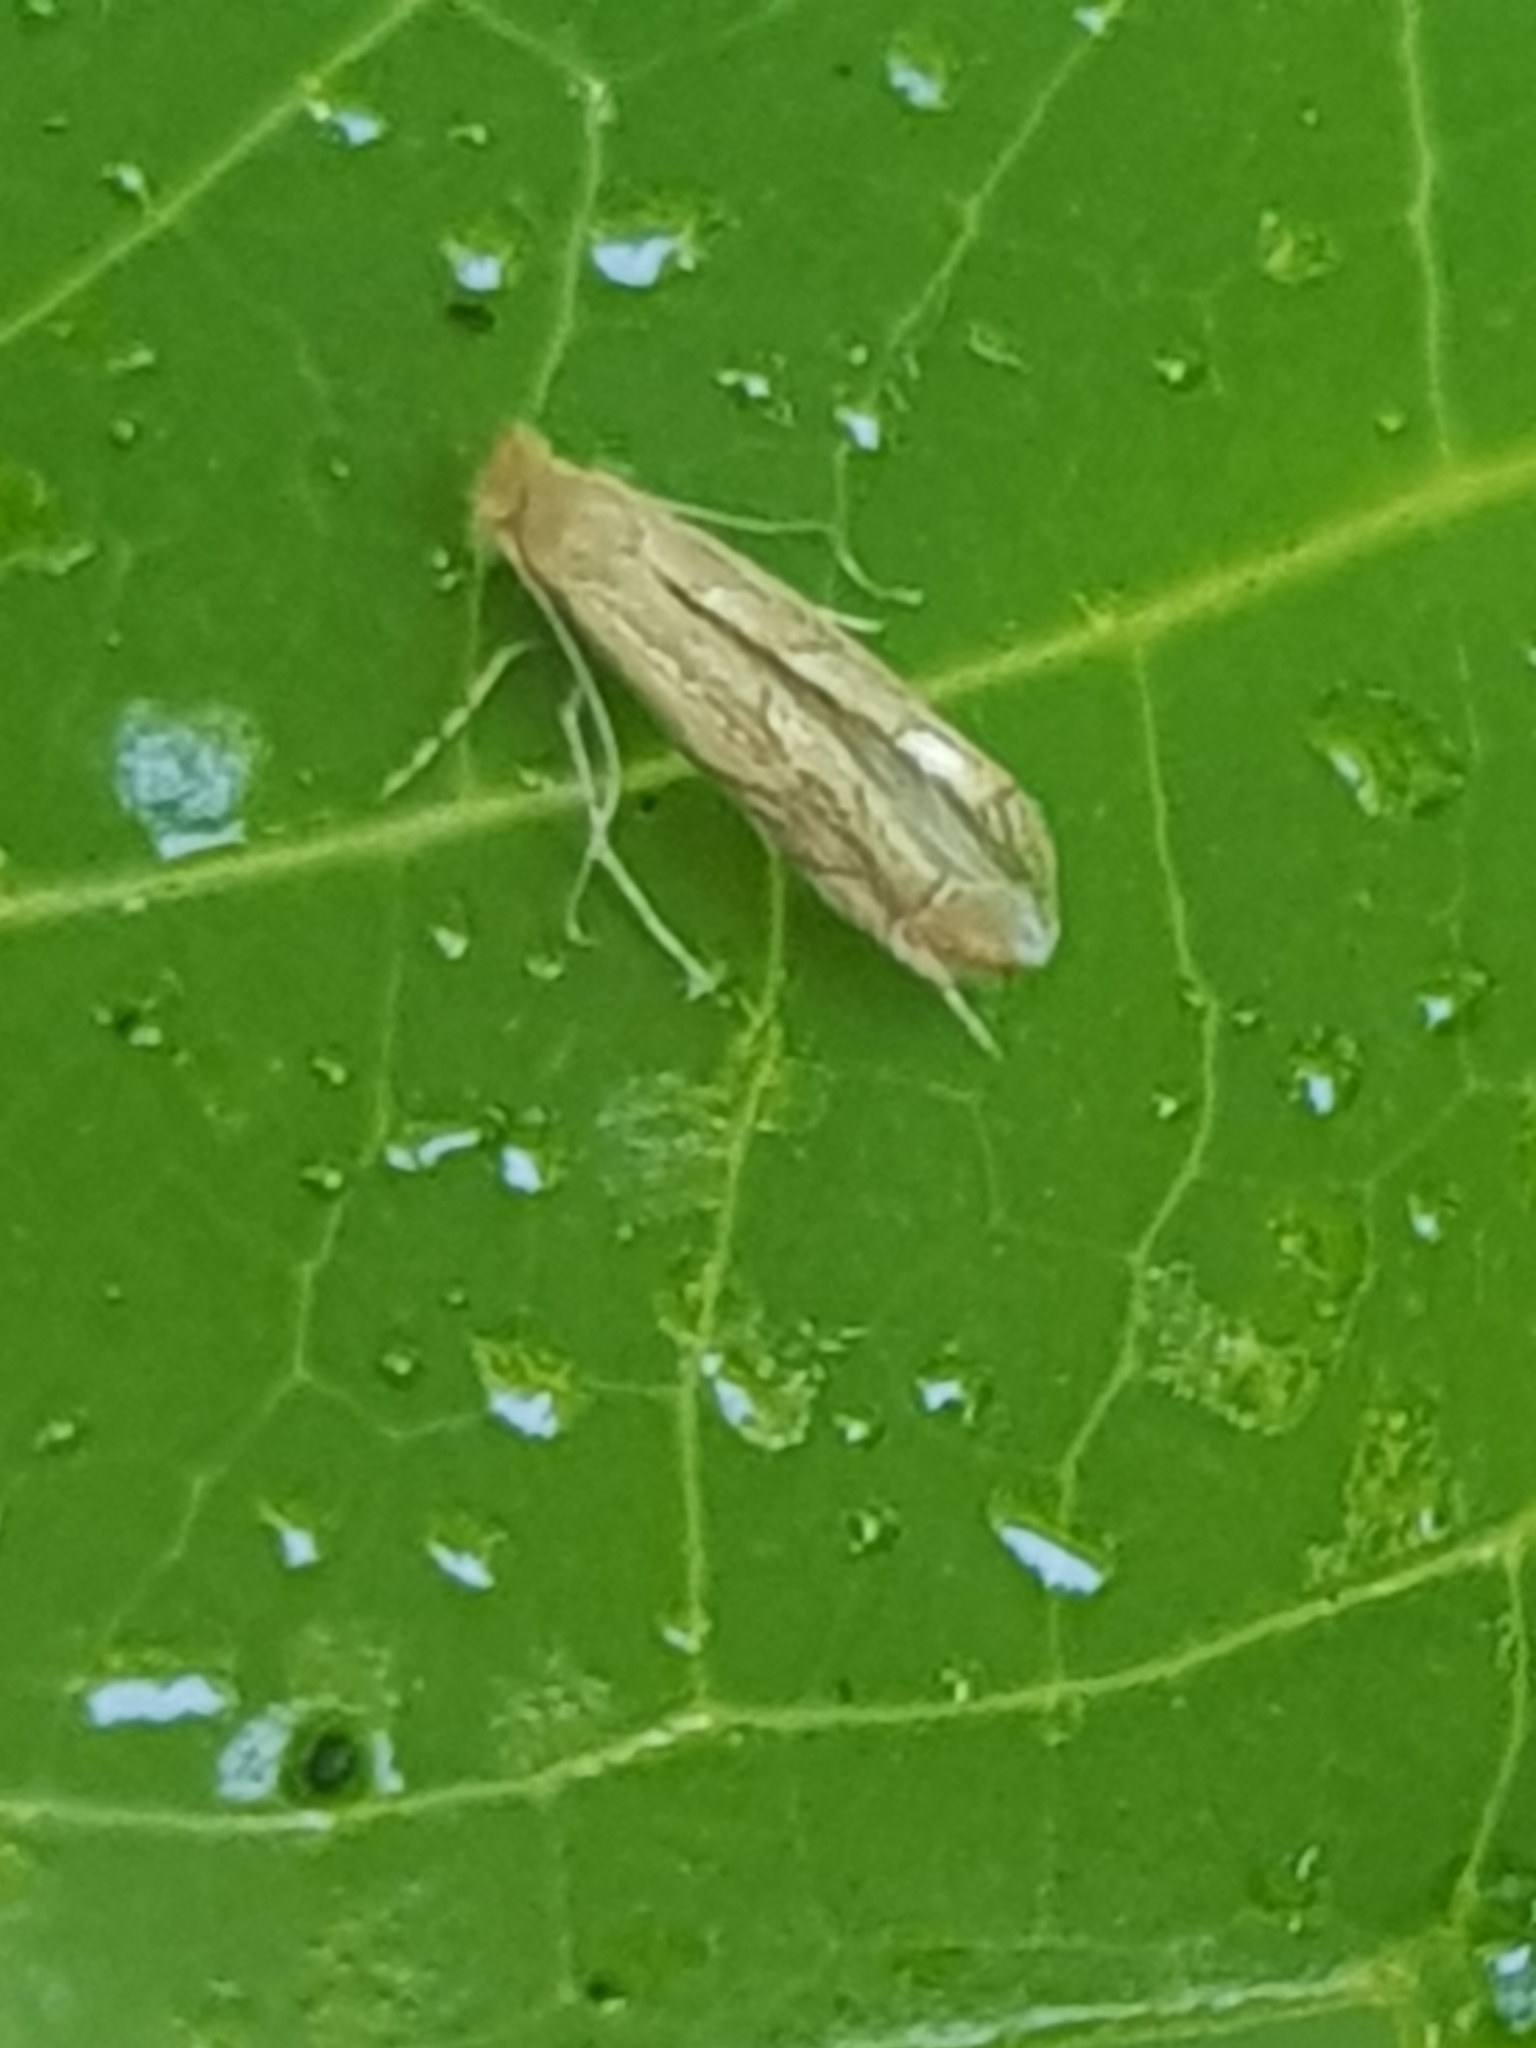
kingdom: Animalia
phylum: Arthropoda
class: Insecta
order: Lepidoptera
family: Gracillariidae
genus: Phyllonorycter
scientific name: Phyllonorycter messaniella
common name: Garden midget
